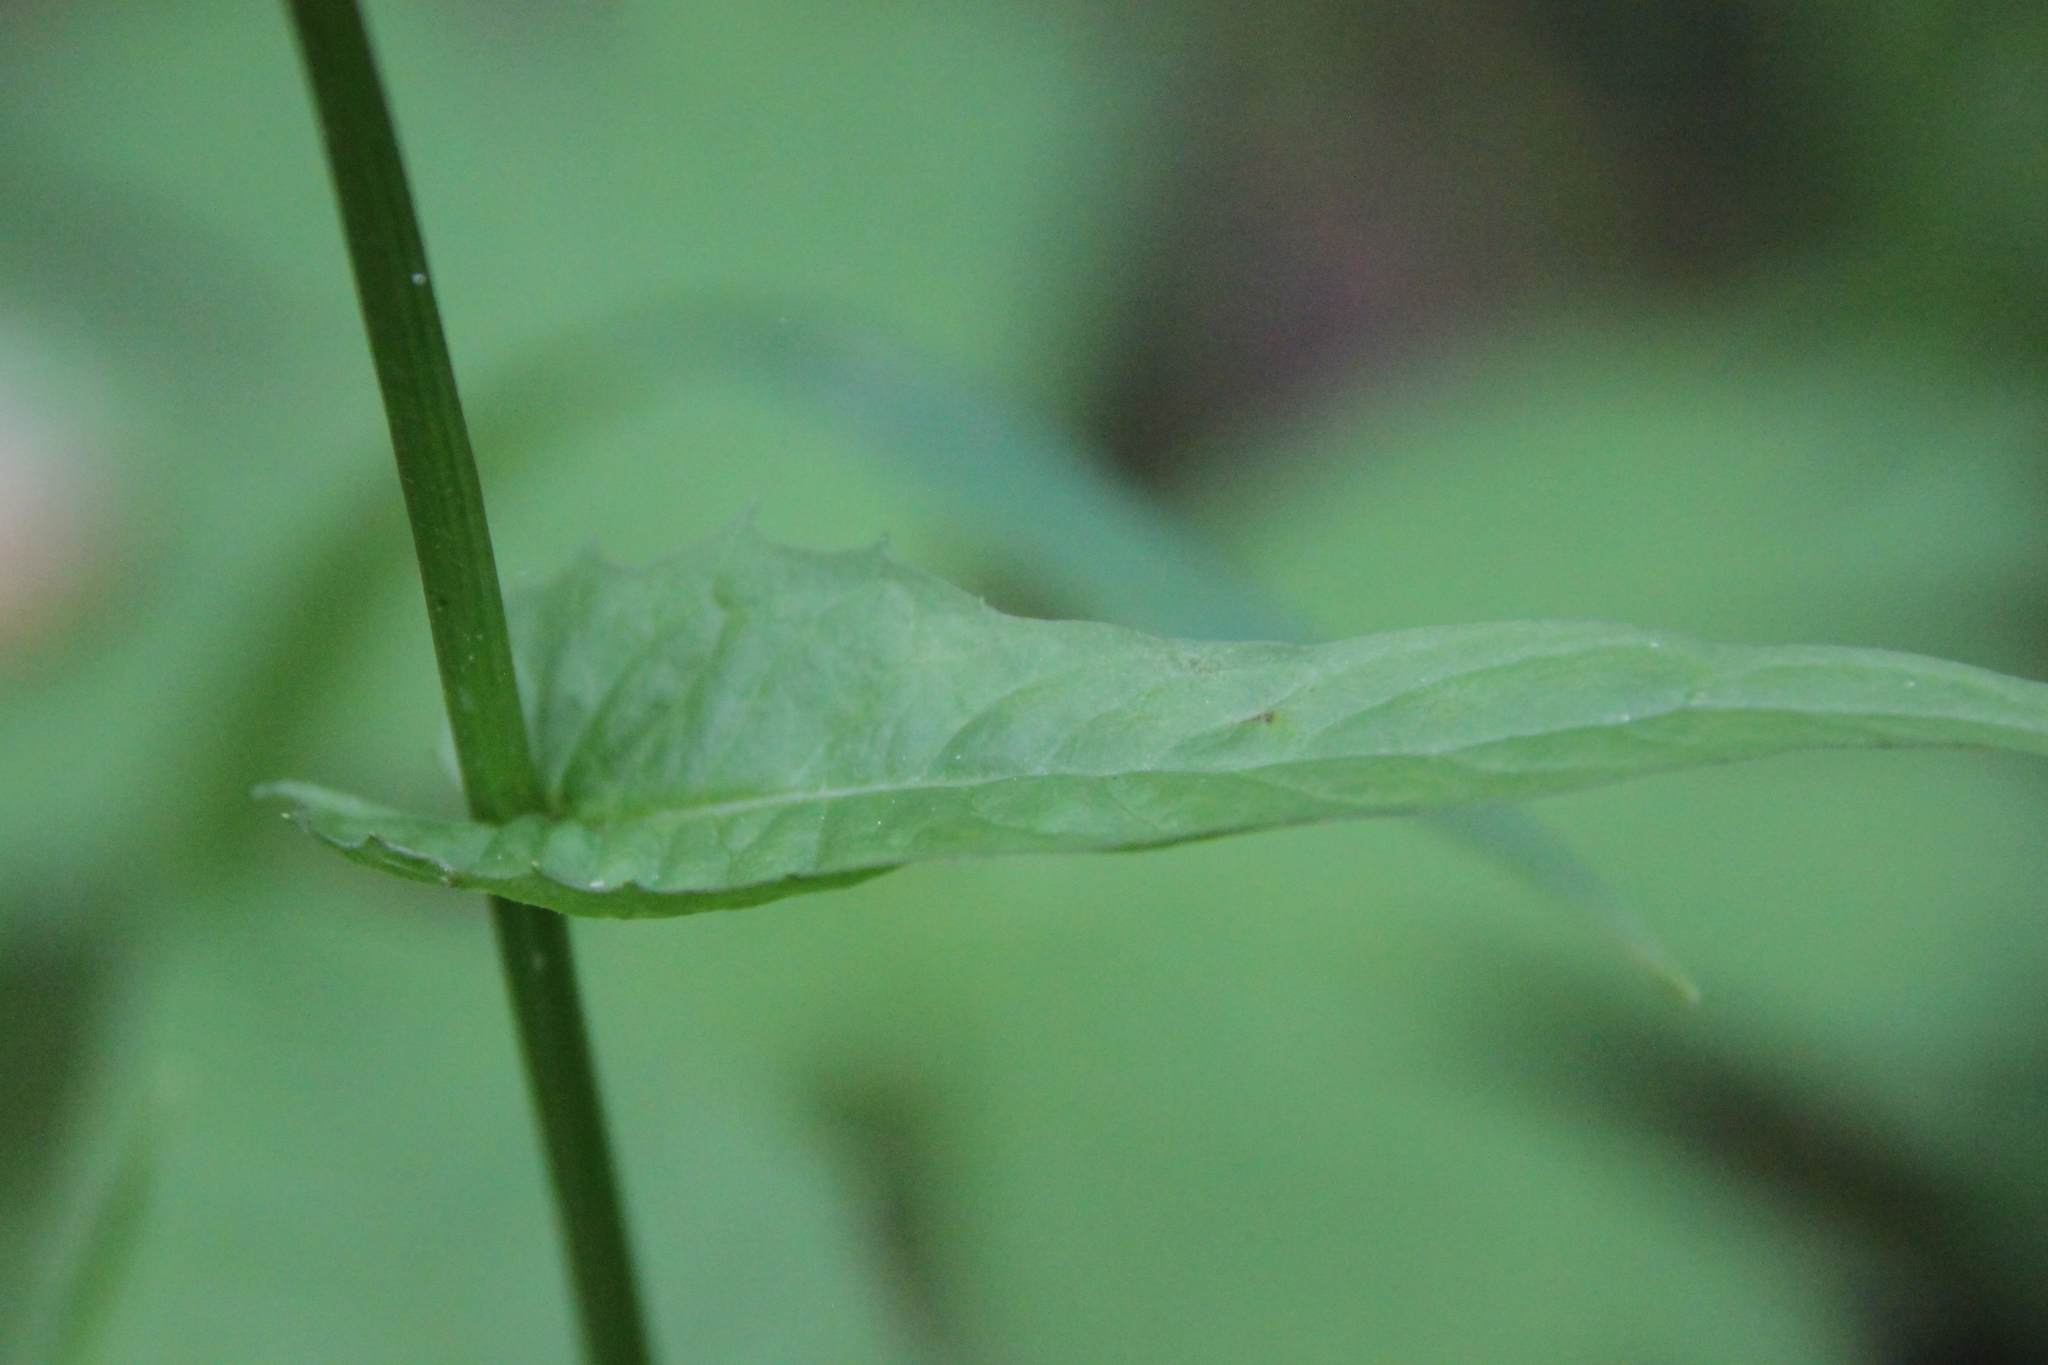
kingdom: Plantae
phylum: Tracheophyta
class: Magnoliopsida
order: Asterales
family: Asteraceae
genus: Crepis
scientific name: Crepis paludosa
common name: Marsh hawk's-beard
